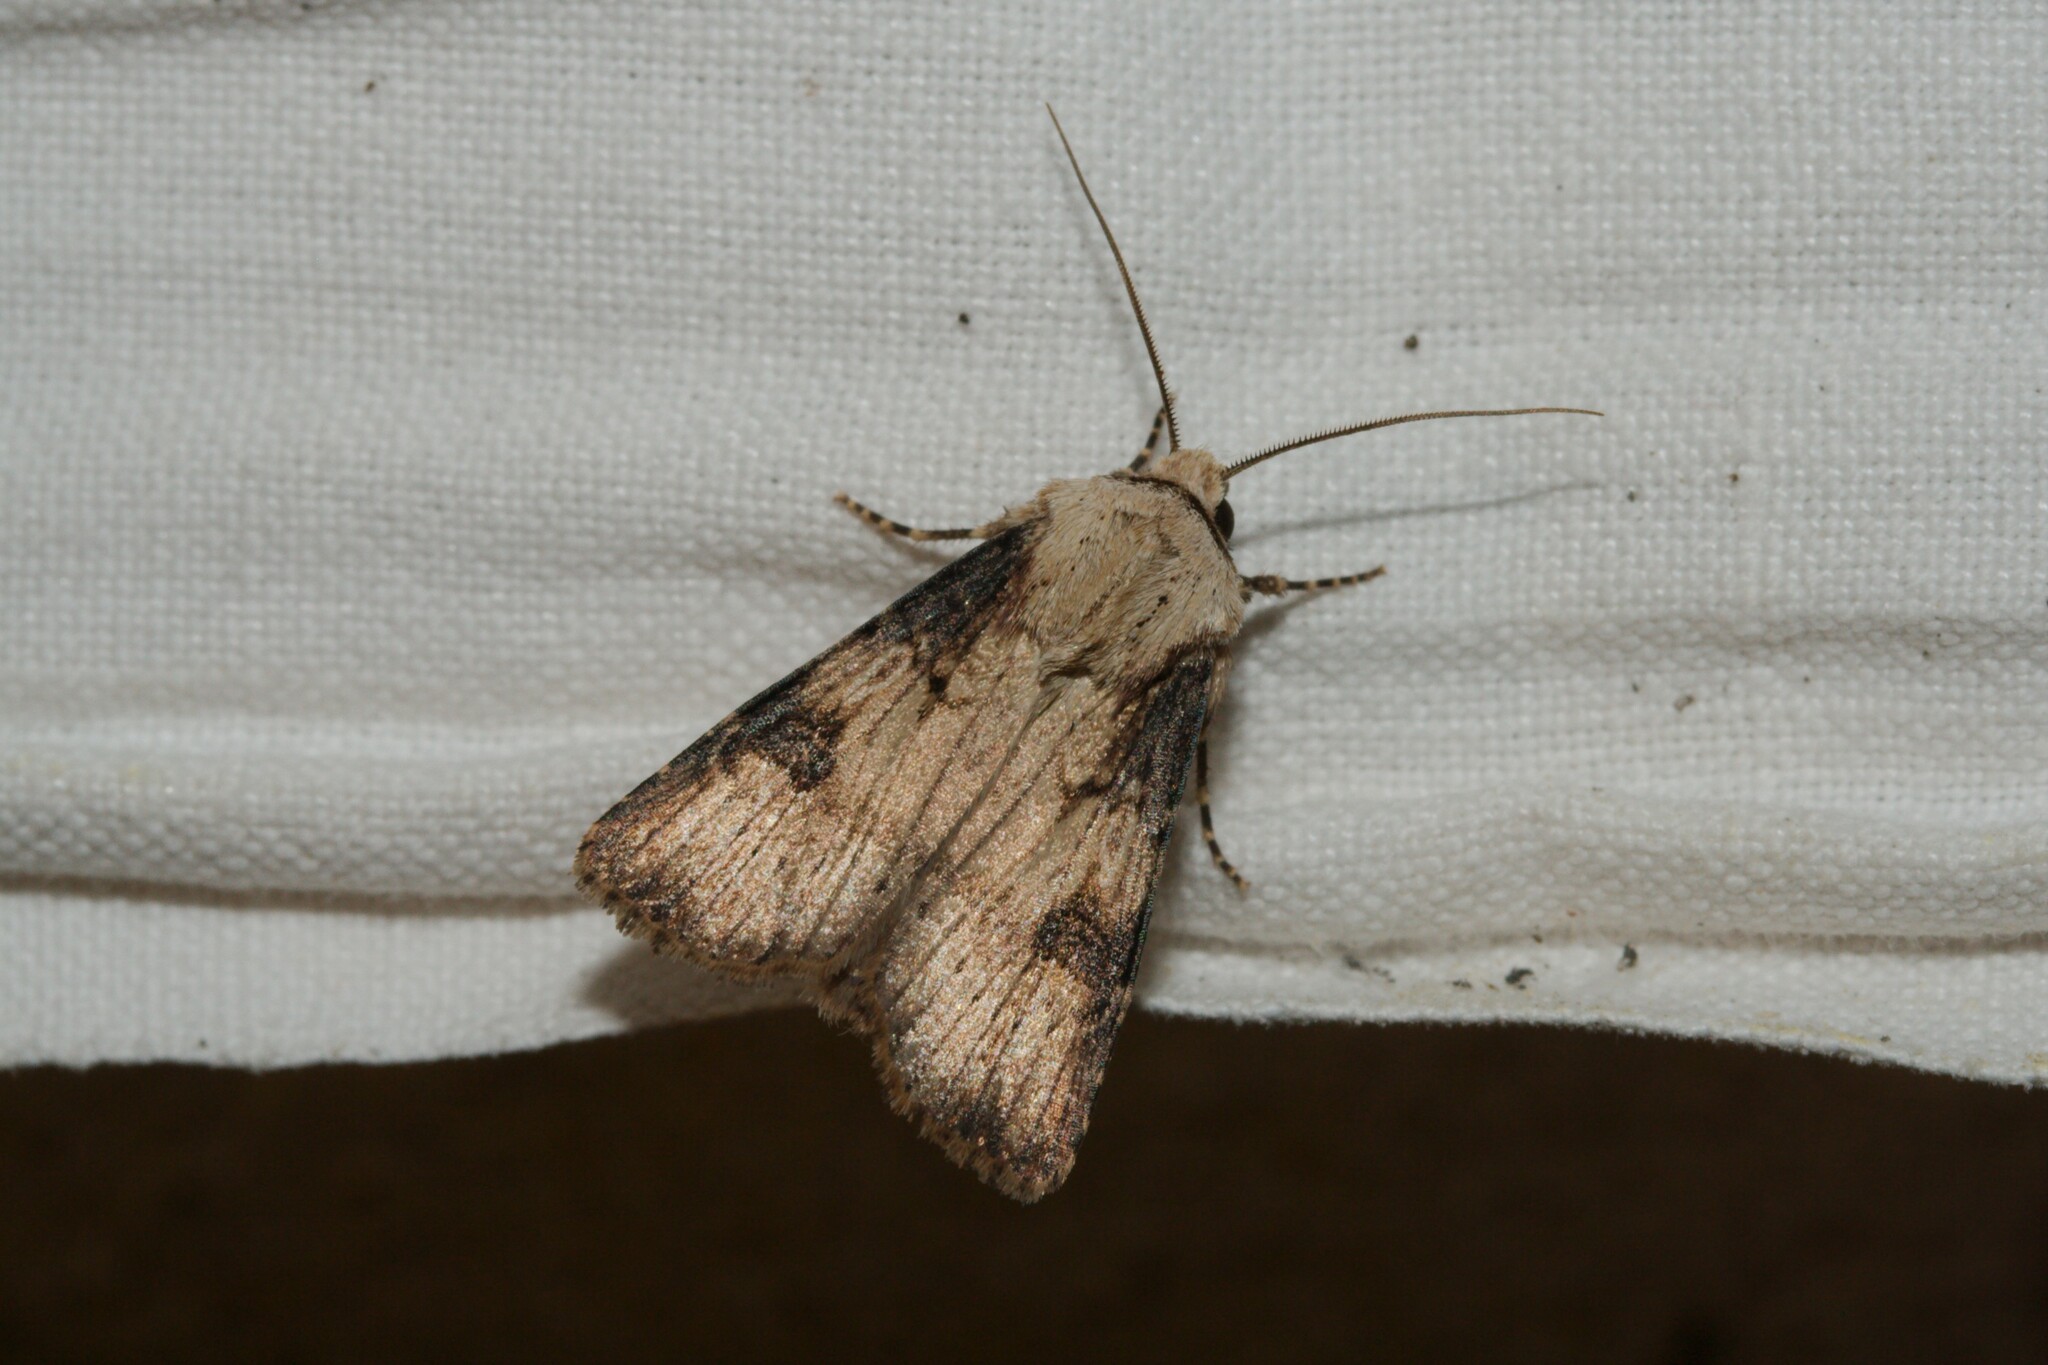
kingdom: Animalia
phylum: Arthropoda
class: Insecta
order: Lepidoptera
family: Noctuidae
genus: Agrotis
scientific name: Agrotis puta
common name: Shuttle-shaped dart
